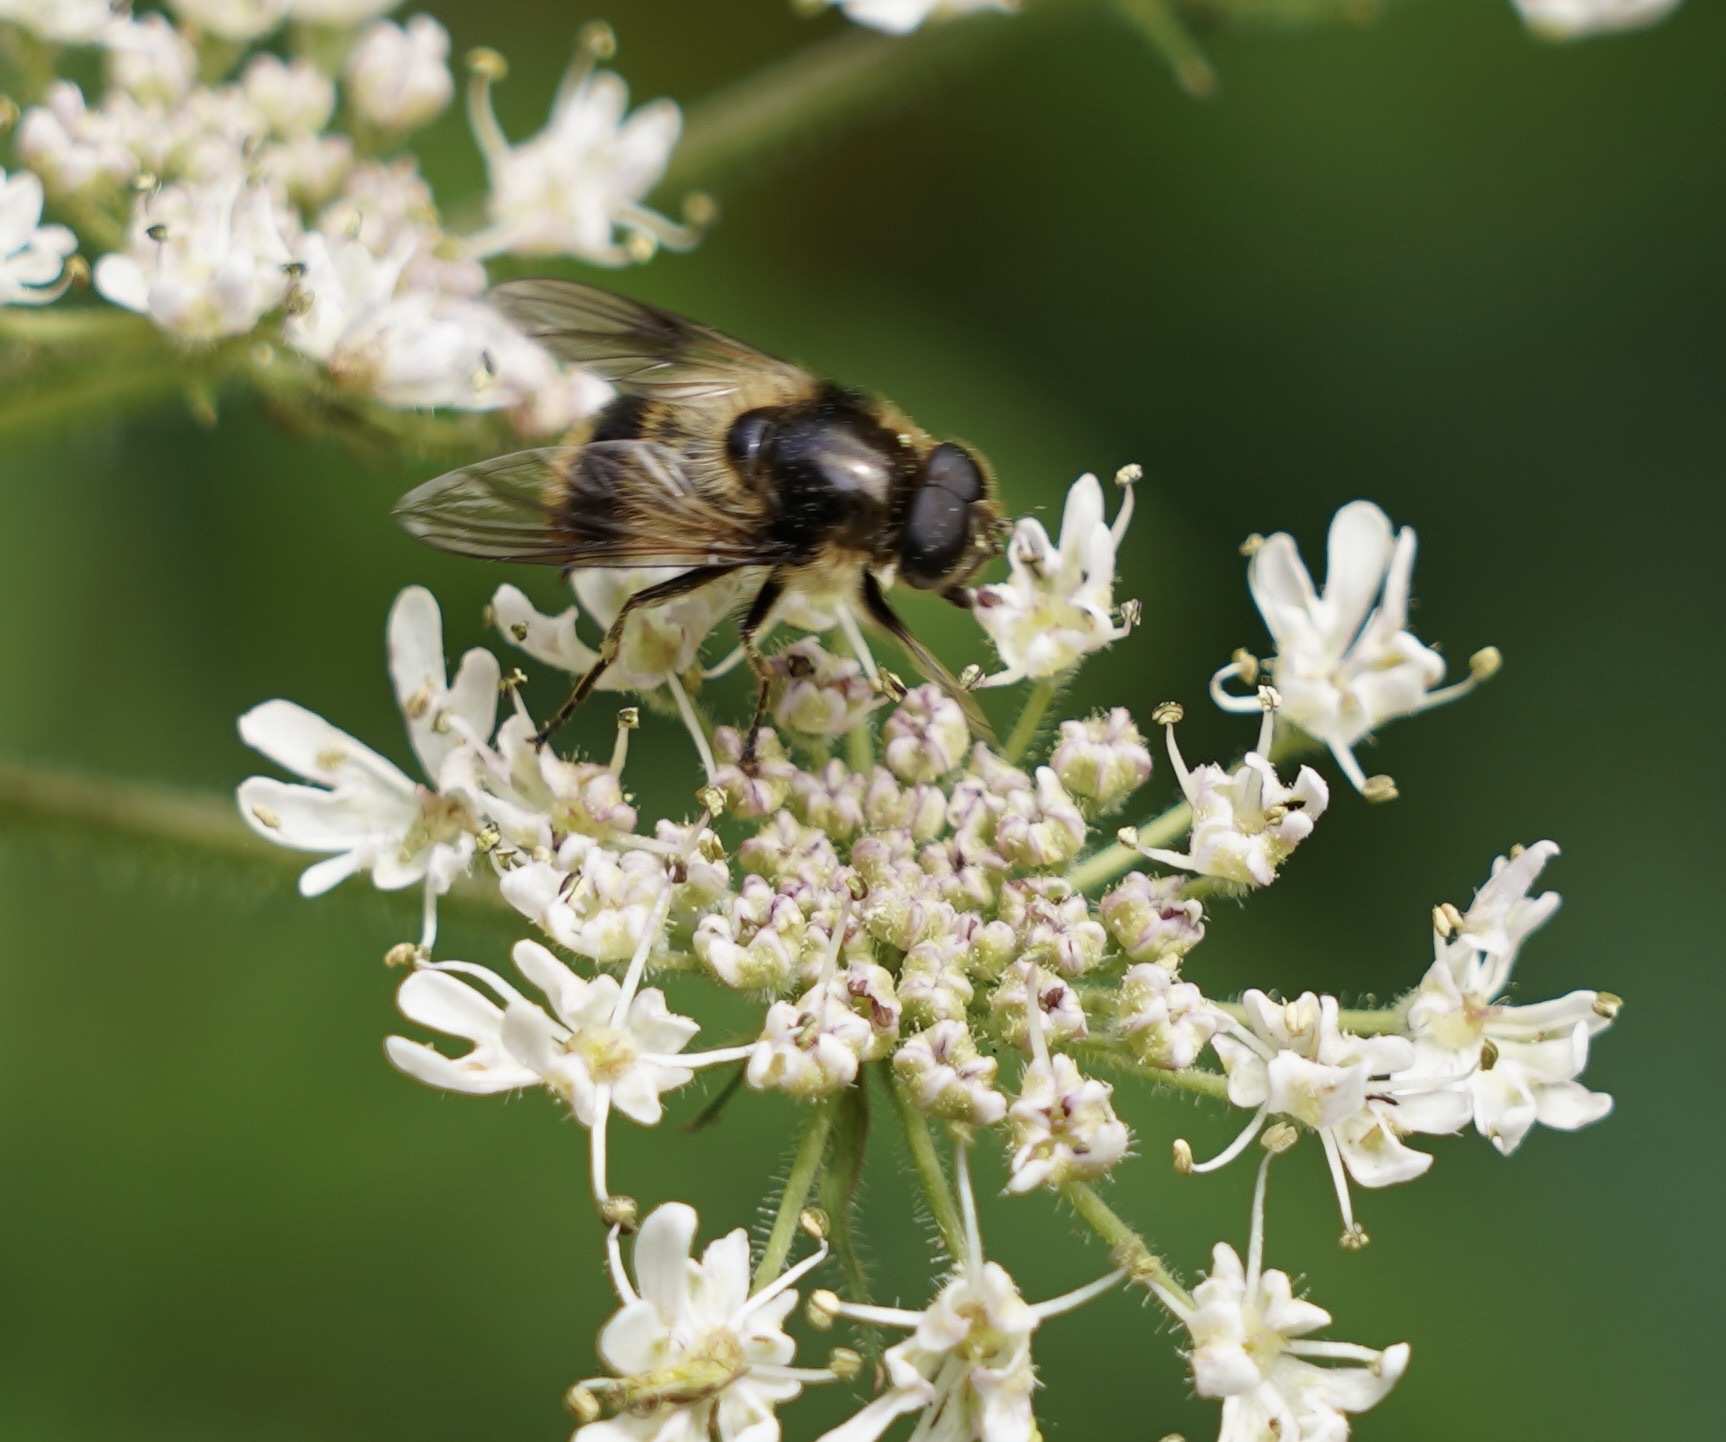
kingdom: Animalia
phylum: Arthropoda
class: Insecta
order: Diptera
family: Syrphidae
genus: Cheilosia
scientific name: Cheilosia illustrata
